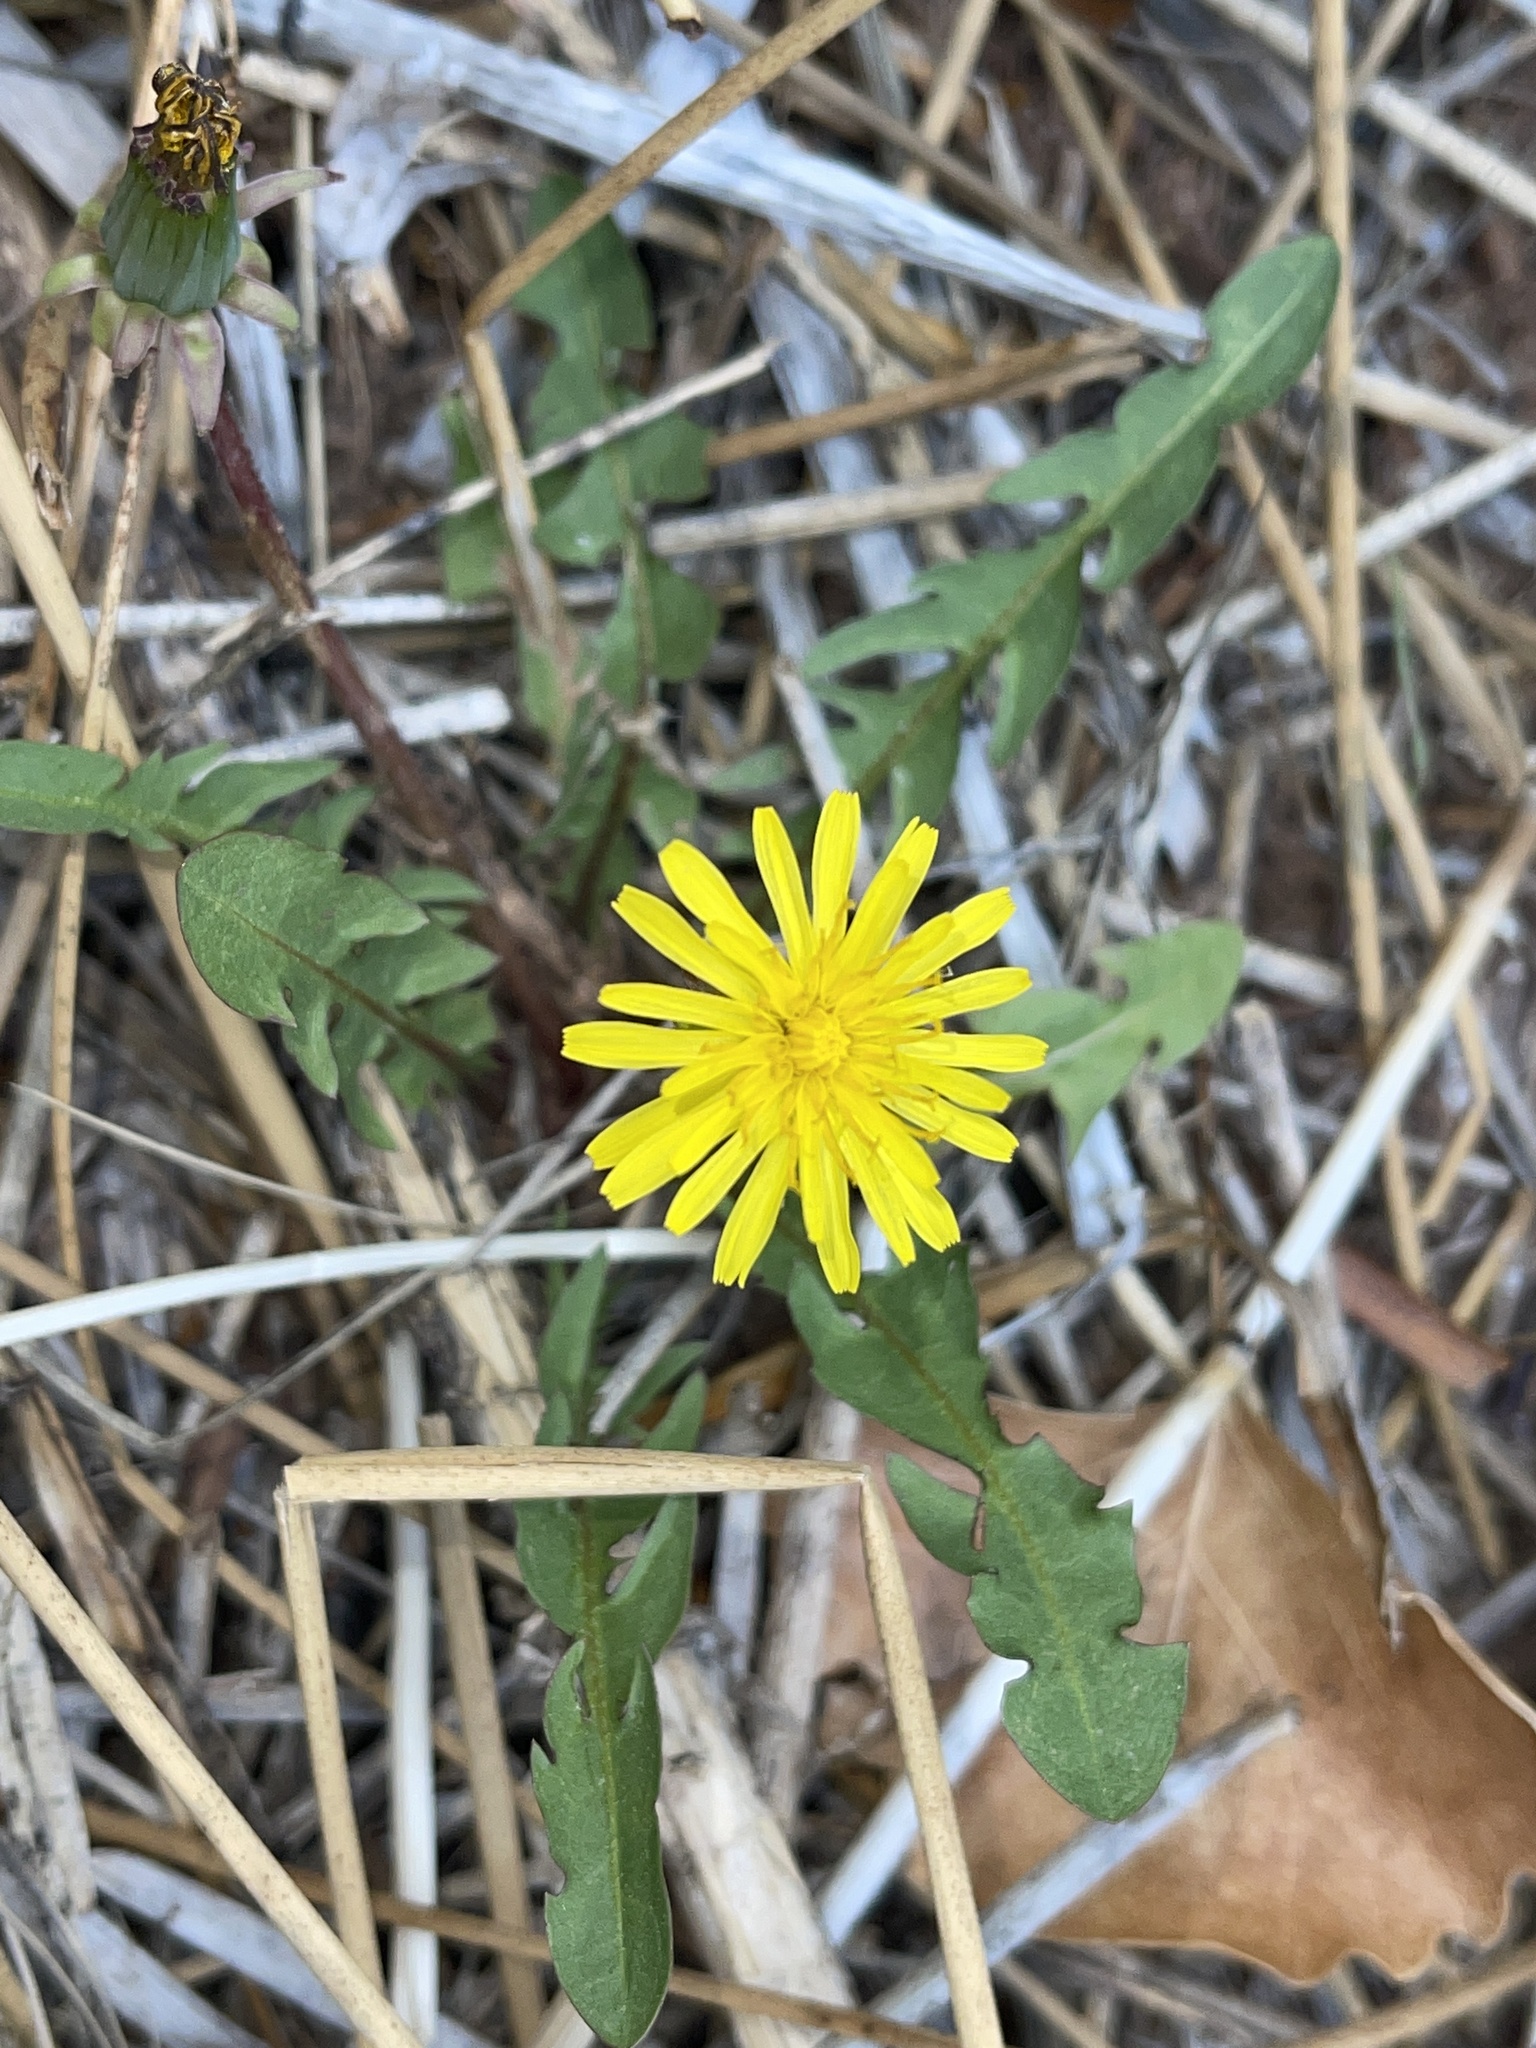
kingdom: Plantae
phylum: Tracheophyta
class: Magnoliopsida
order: Asterales
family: Asteraceae
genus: Taraxacum
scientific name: Taraxacum officinale
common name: Common dandelion
